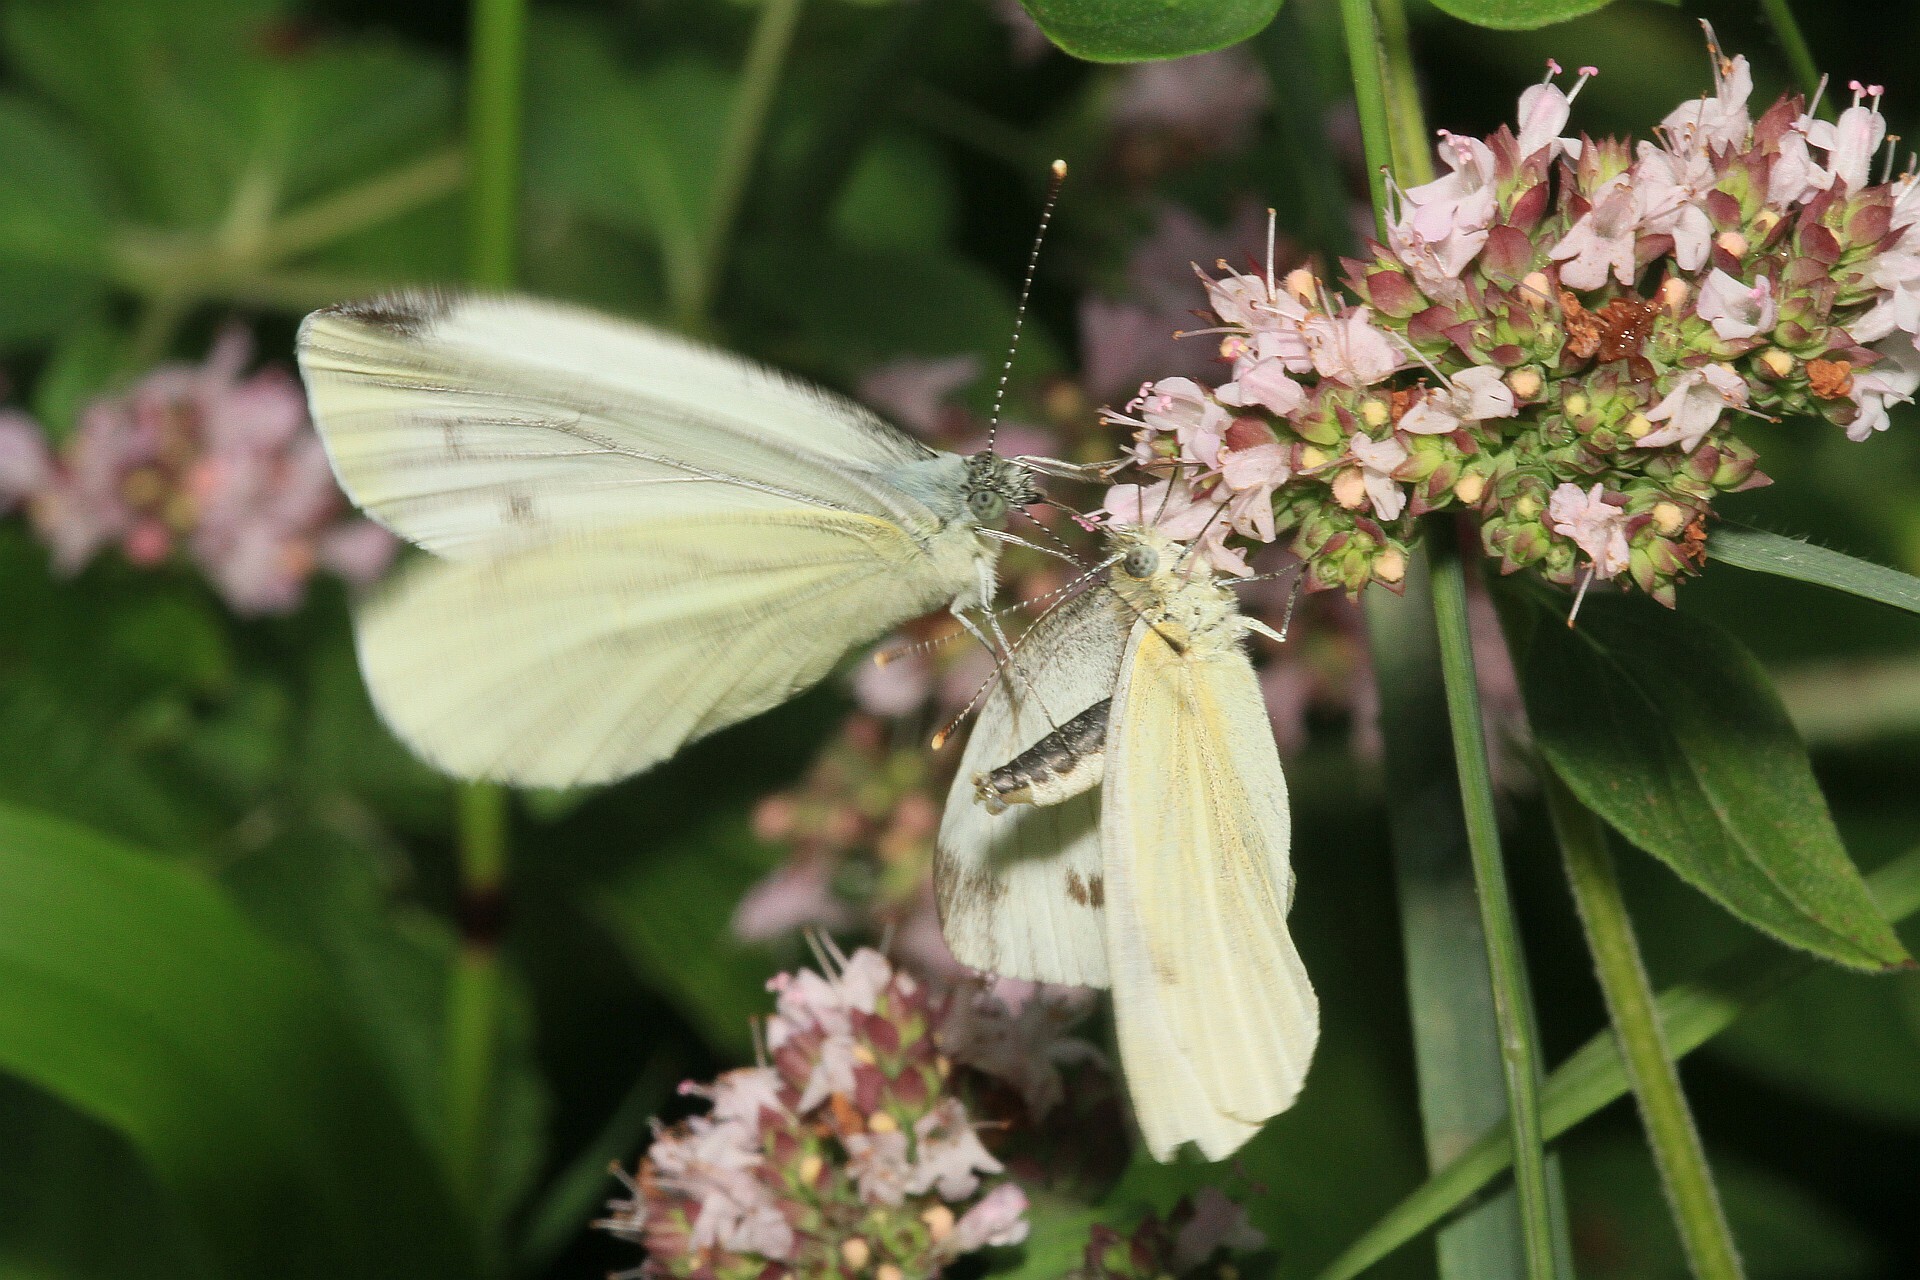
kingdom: Animalia
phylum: Arthropoda
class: Insecta
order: Lepidoptera
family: Pieridae
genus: Pieris
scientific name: Pieris napi
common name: Green-veined white
